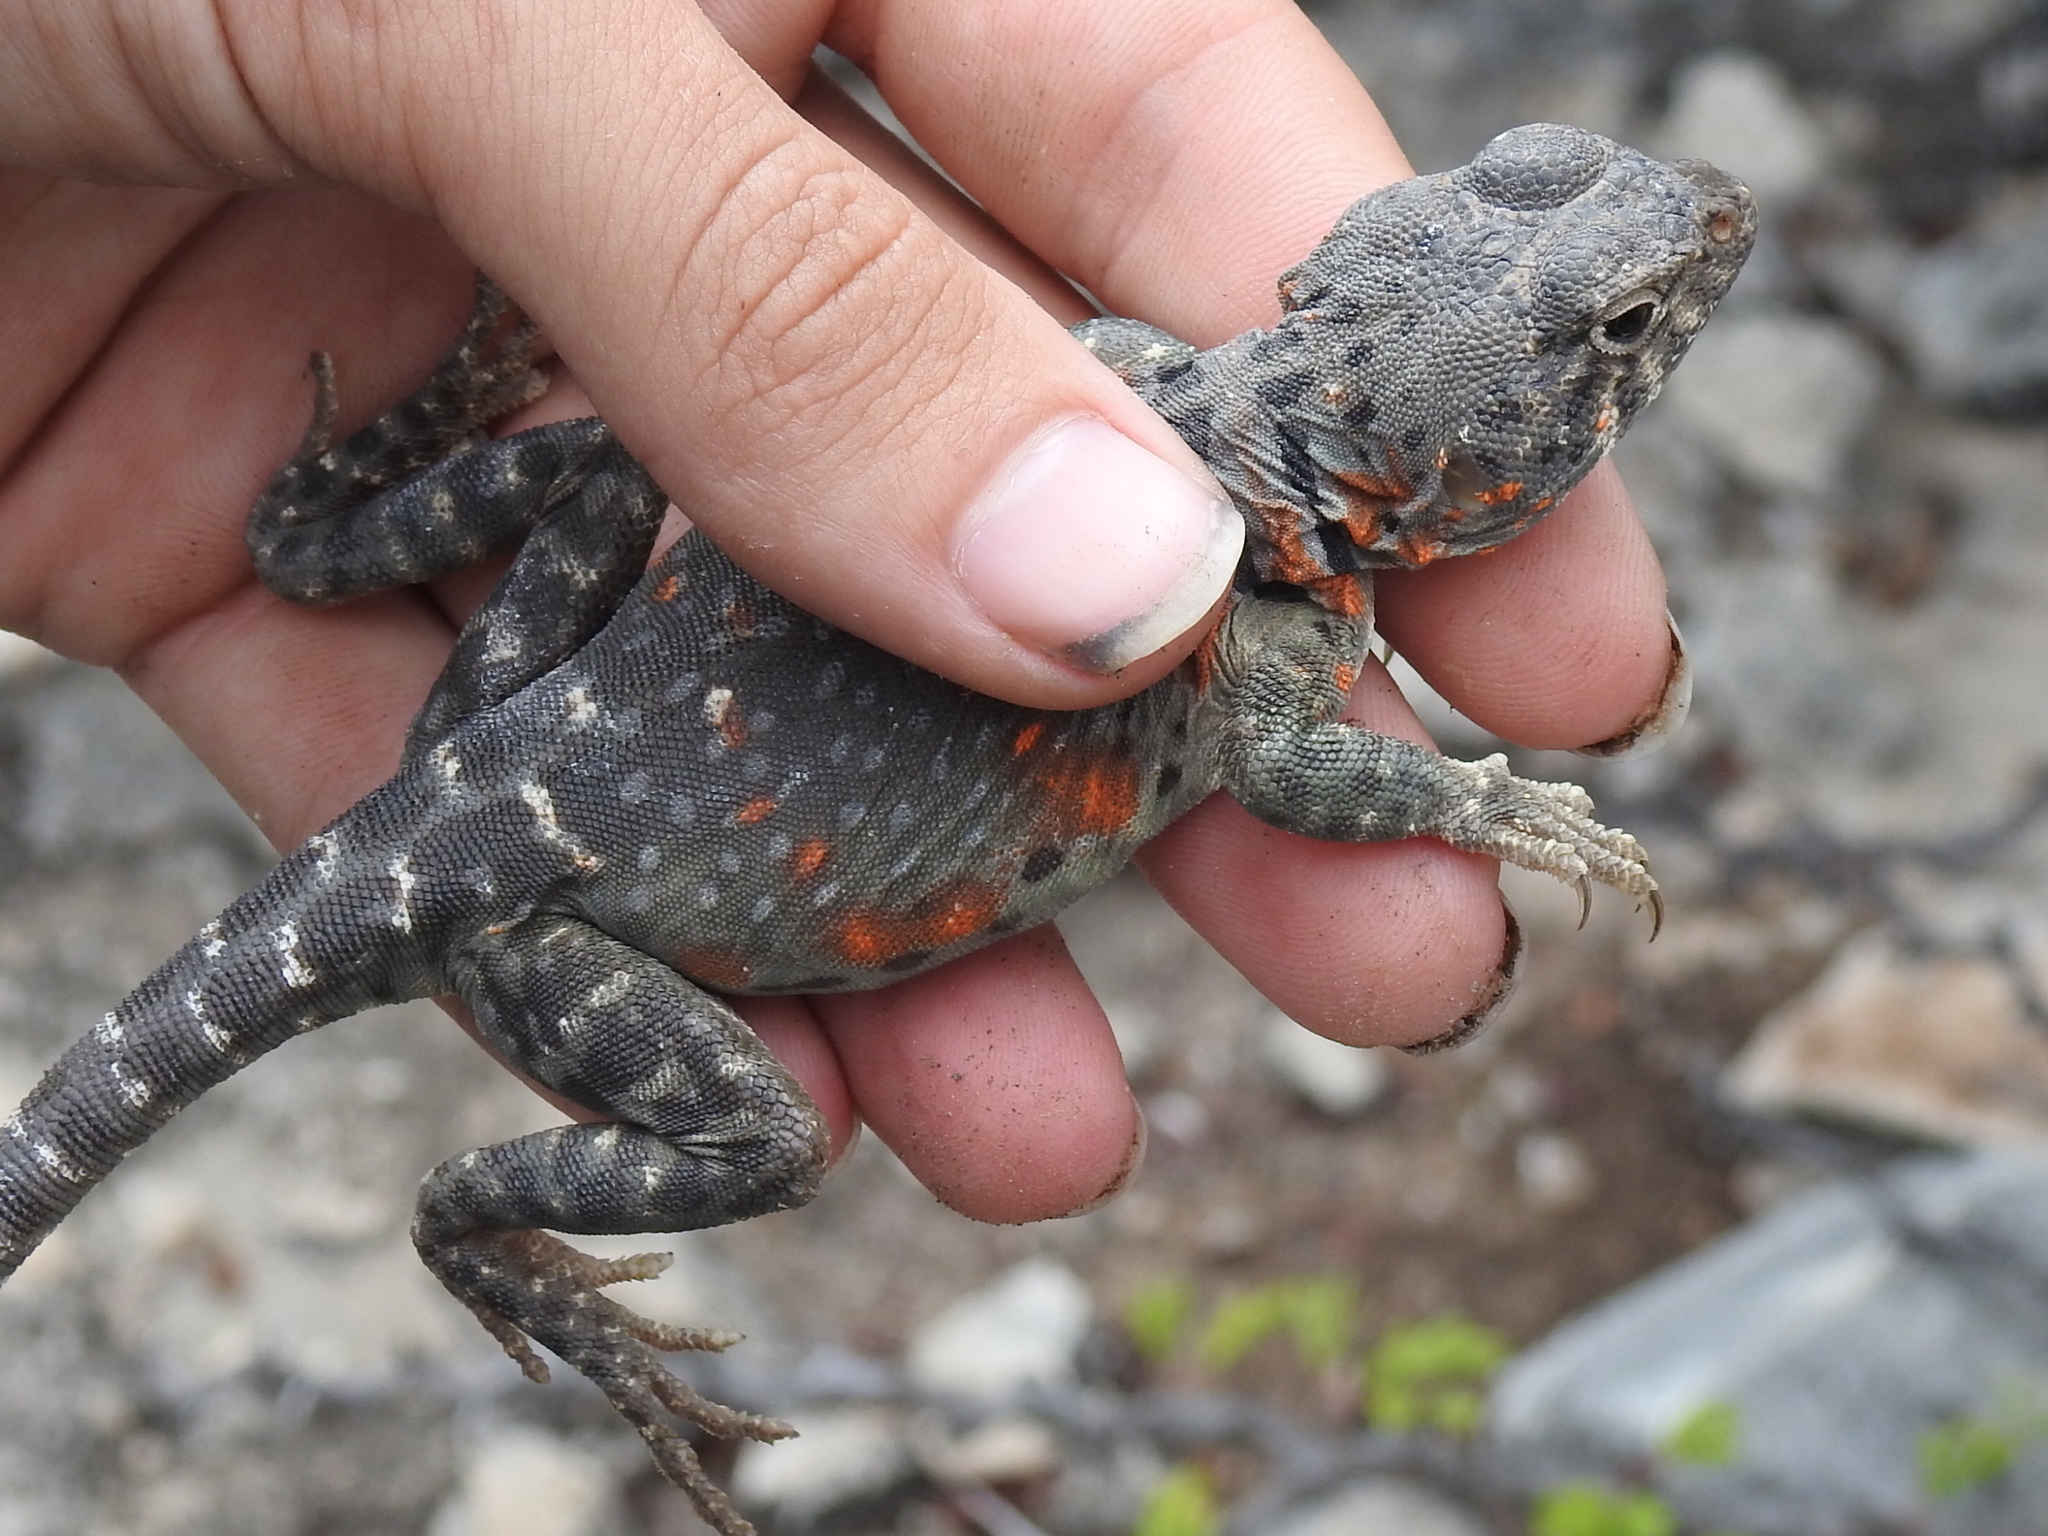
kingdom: Animalia
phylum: Chordata
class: Squamata
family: Crotaphytidae
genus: Crotaphytus
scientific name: Crotaphytus collaris
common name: Collared lizard
